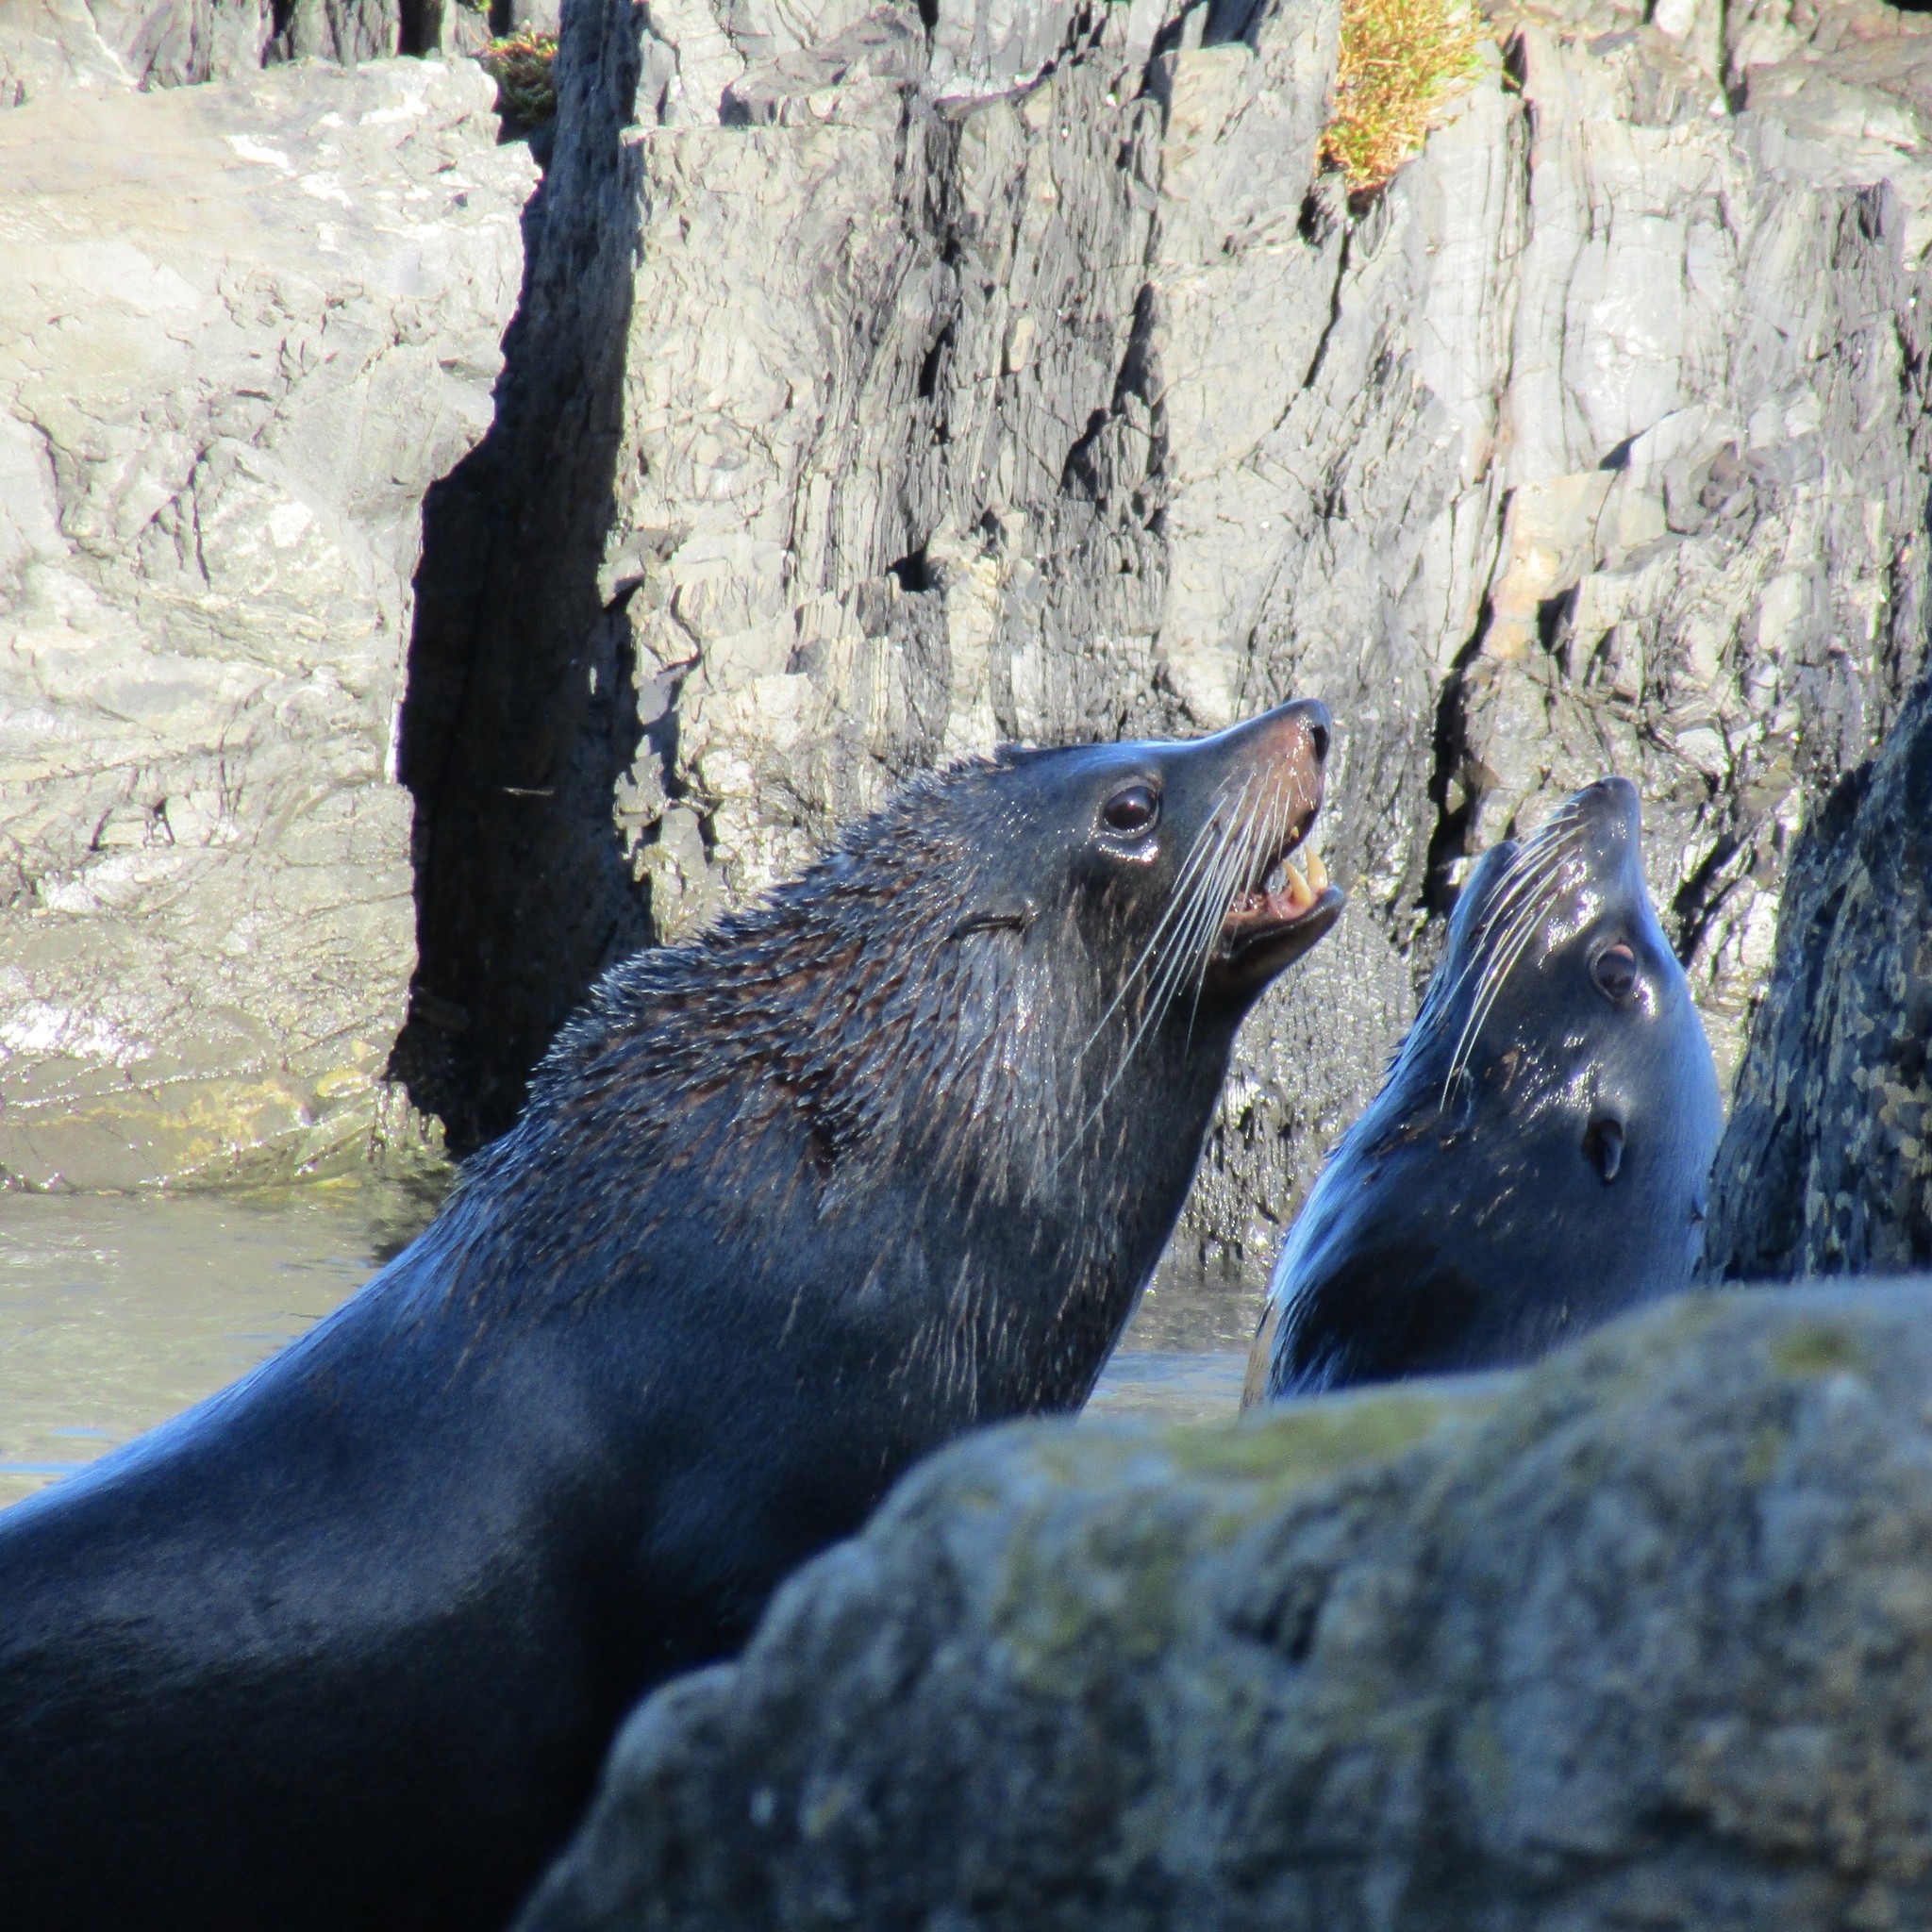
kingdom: Animalia
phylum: Chordata
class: Mammalia
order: Carnivora
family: Otariidae
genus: Arctocephalus
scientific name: Arctocephalus forsteri
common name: New zealand fur seal
